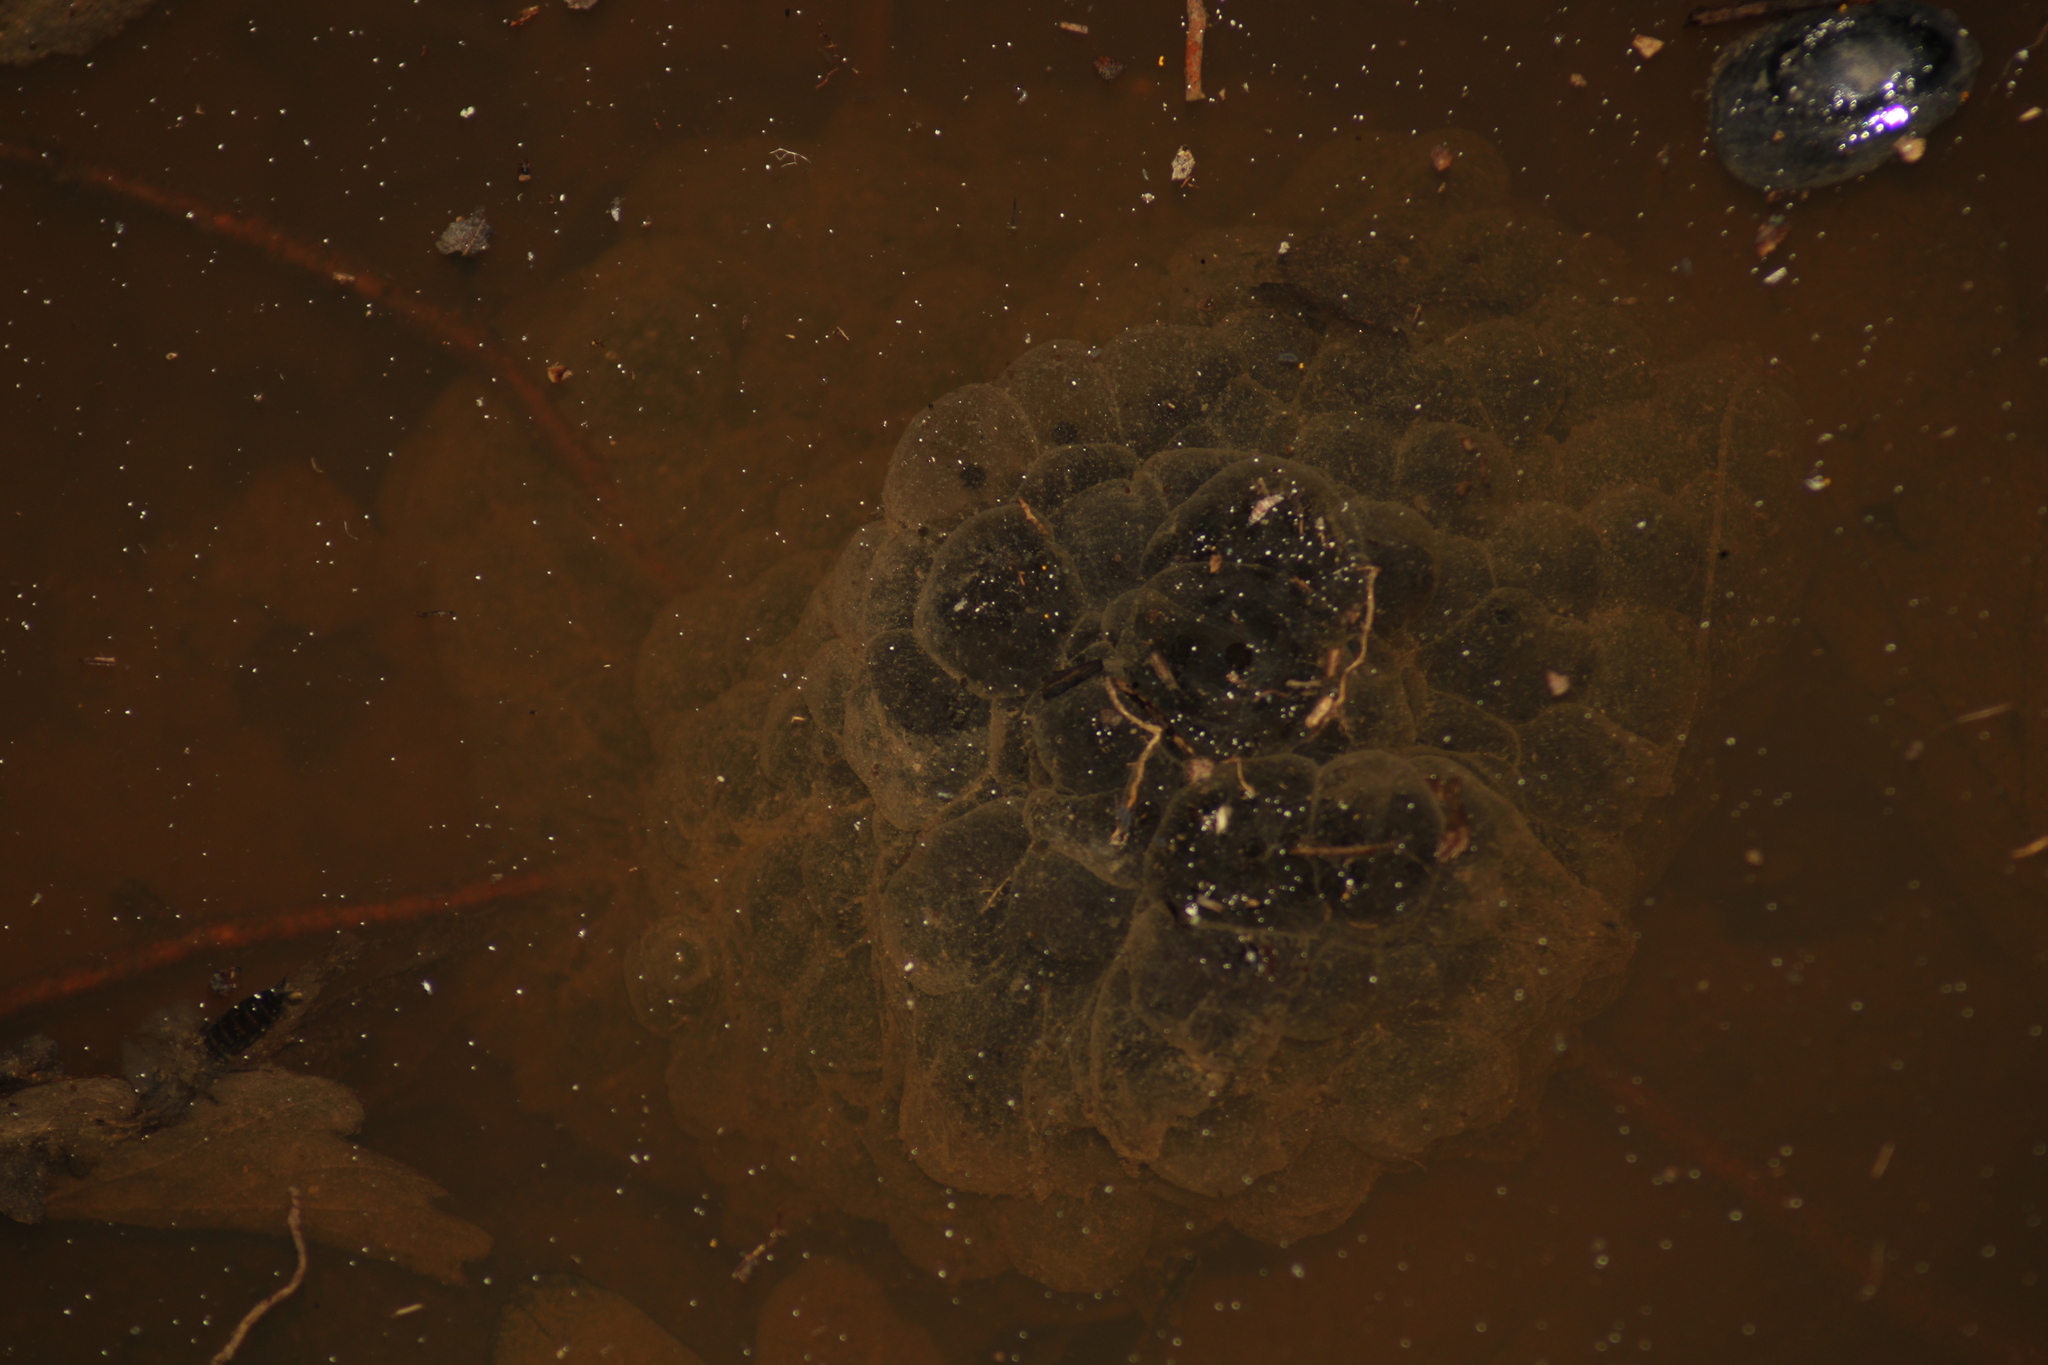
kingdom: Animalia
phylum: Chordata
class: Amphibia
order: Anura
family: Ranidae
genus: Rana
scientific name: Rana dalmatina
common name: Agile frog
